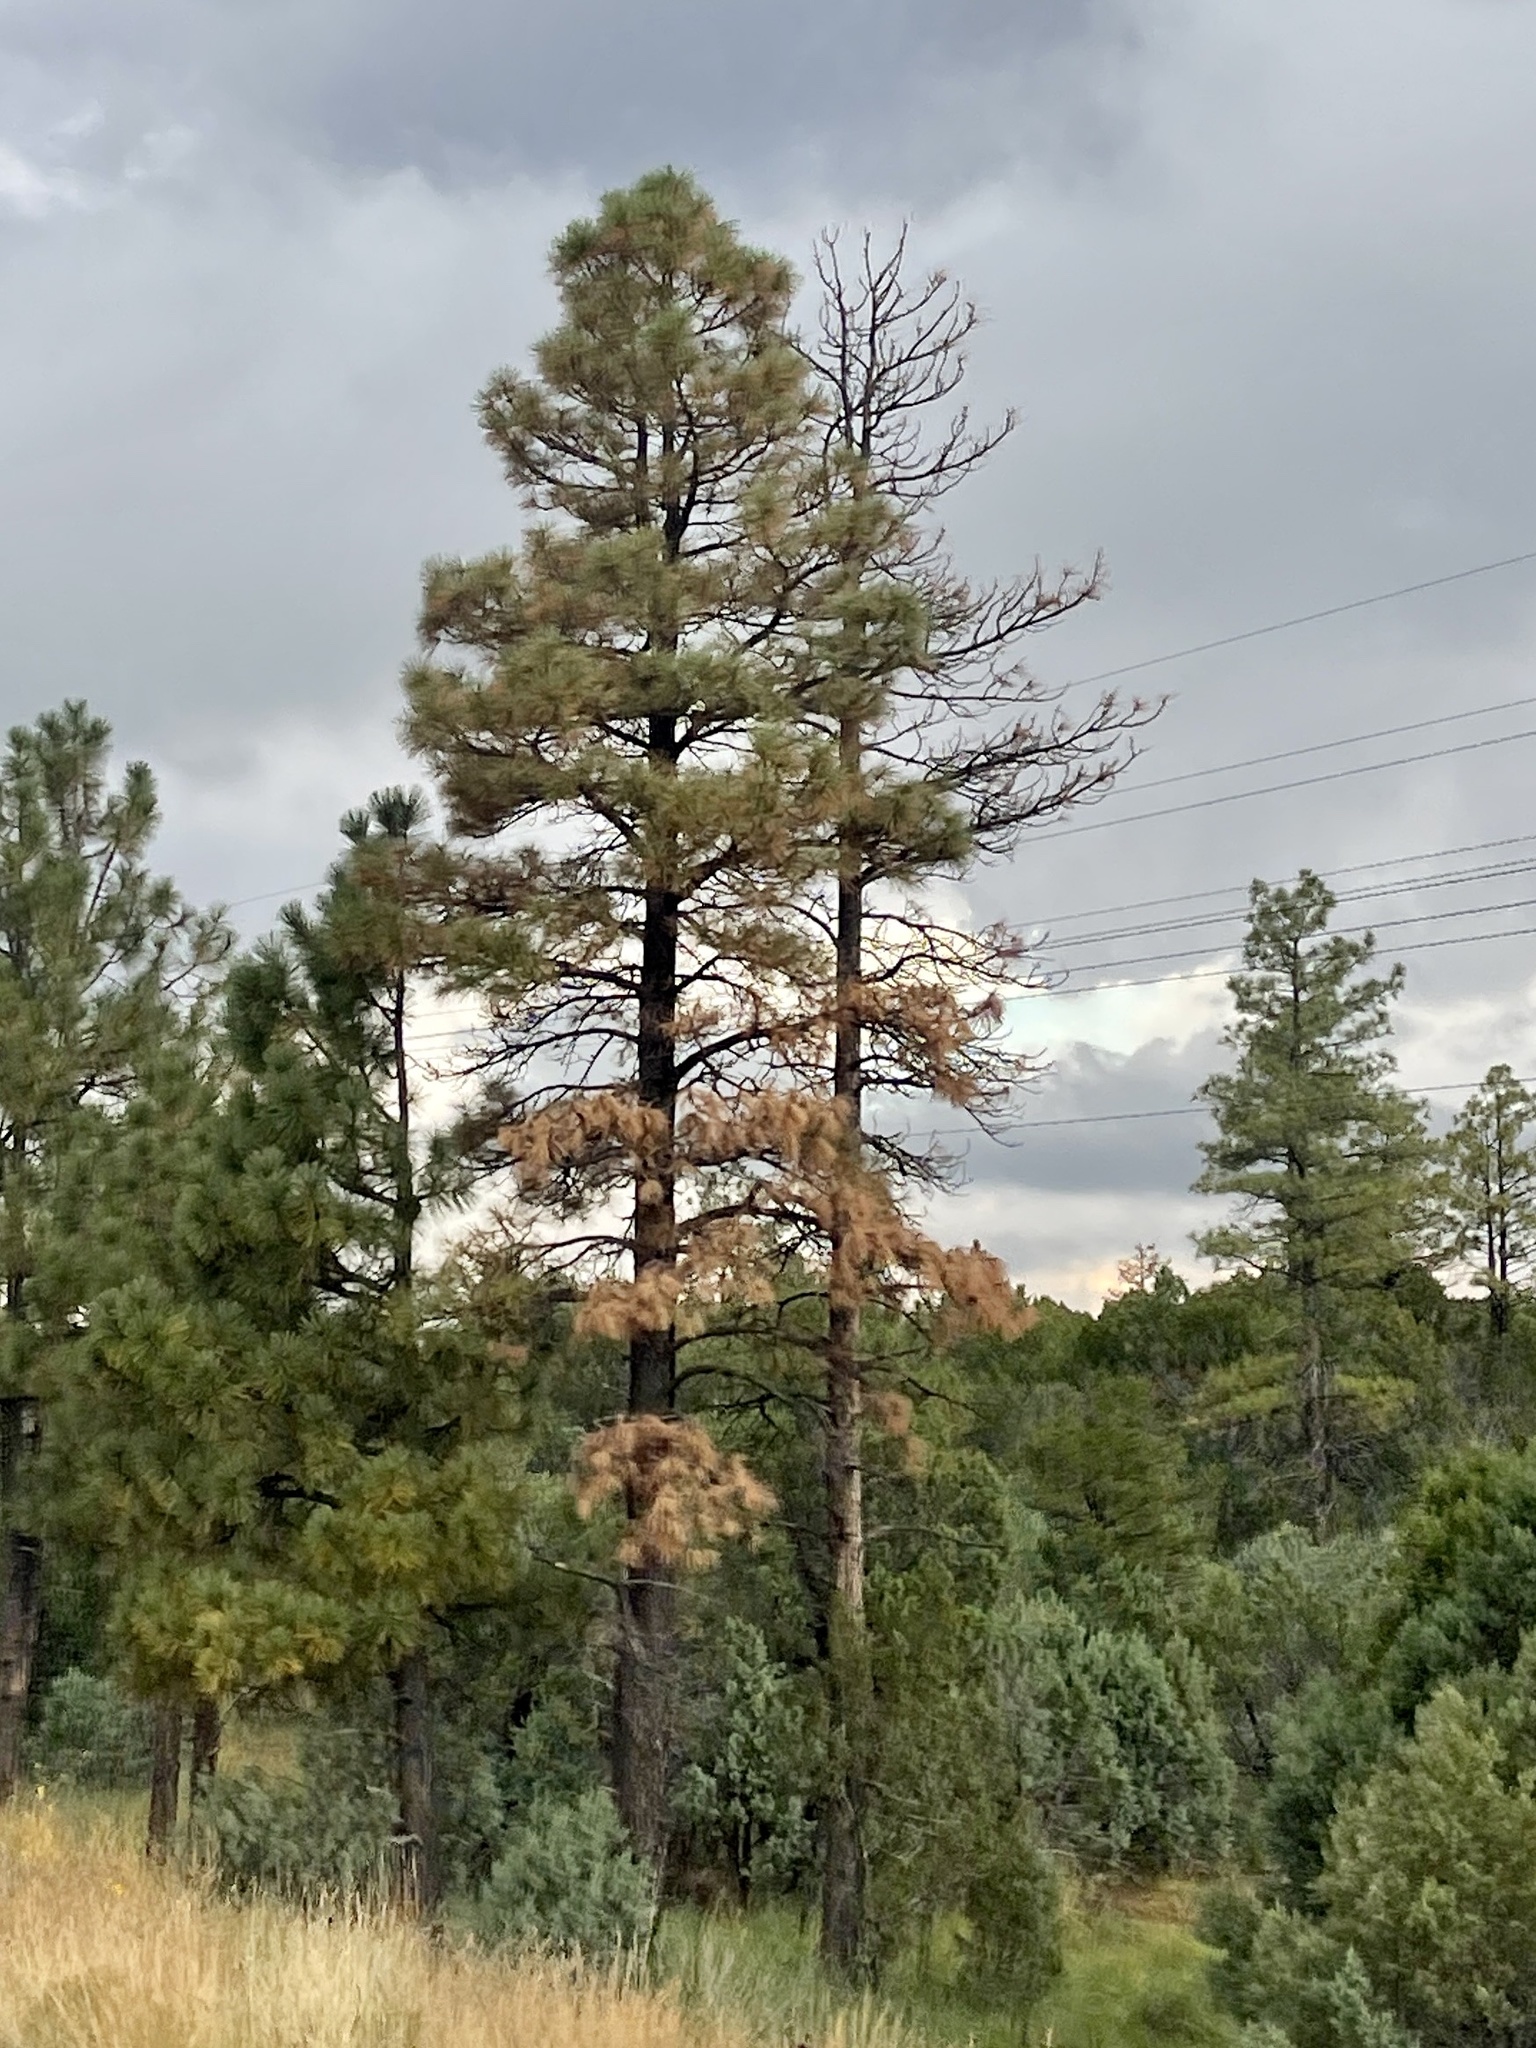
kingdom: Plantae
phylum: Tracheophyta
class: Pinopsida
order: Pinales
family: Pinaceae
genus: Pinus
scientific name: Pinus ponderosa
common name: Western yellow-pine
